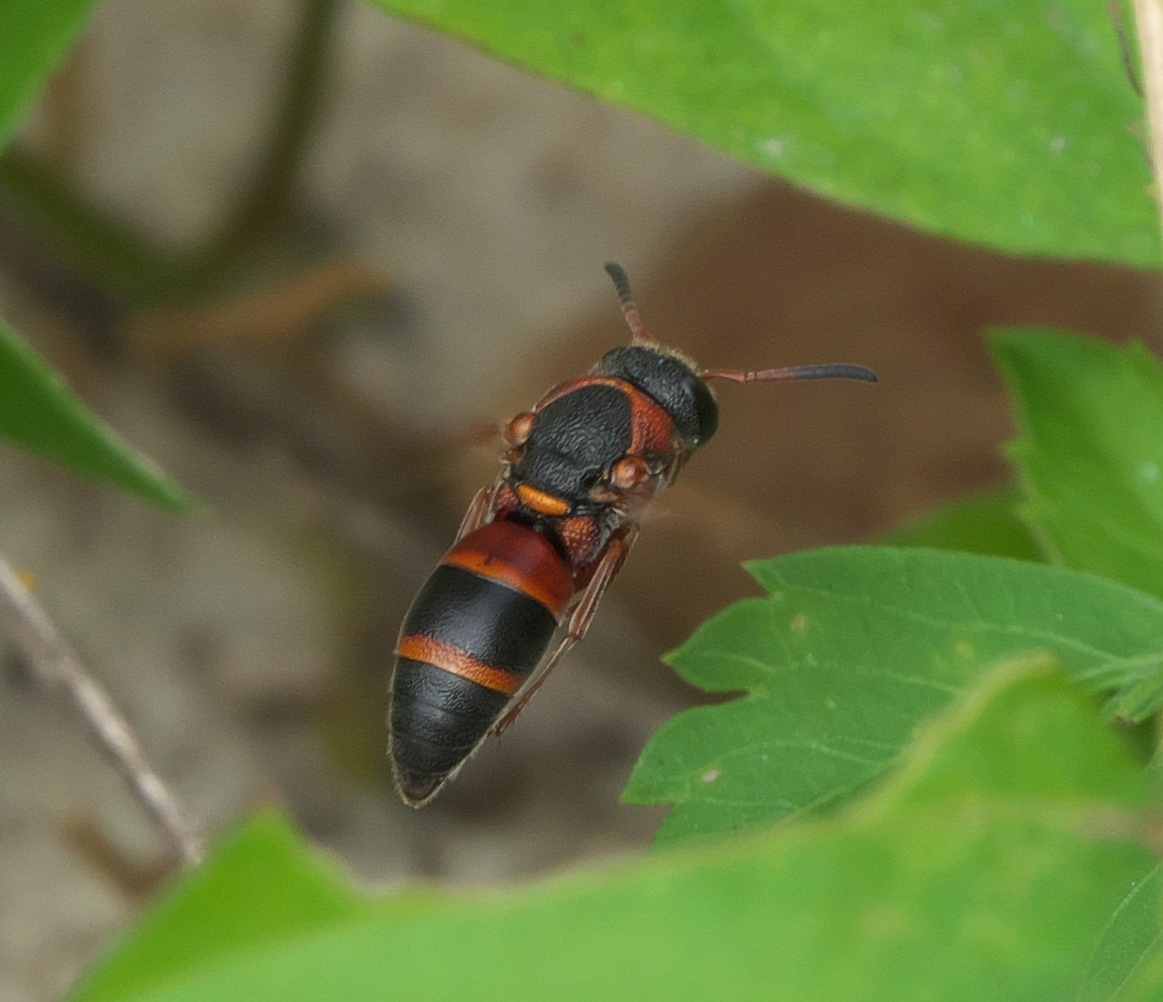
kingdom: Animalia
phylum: Arthropoda
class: Insecta
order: Hymenoptera
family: Eumenidae
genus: Pachodynerus
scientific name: Pachodynerus erynnis
